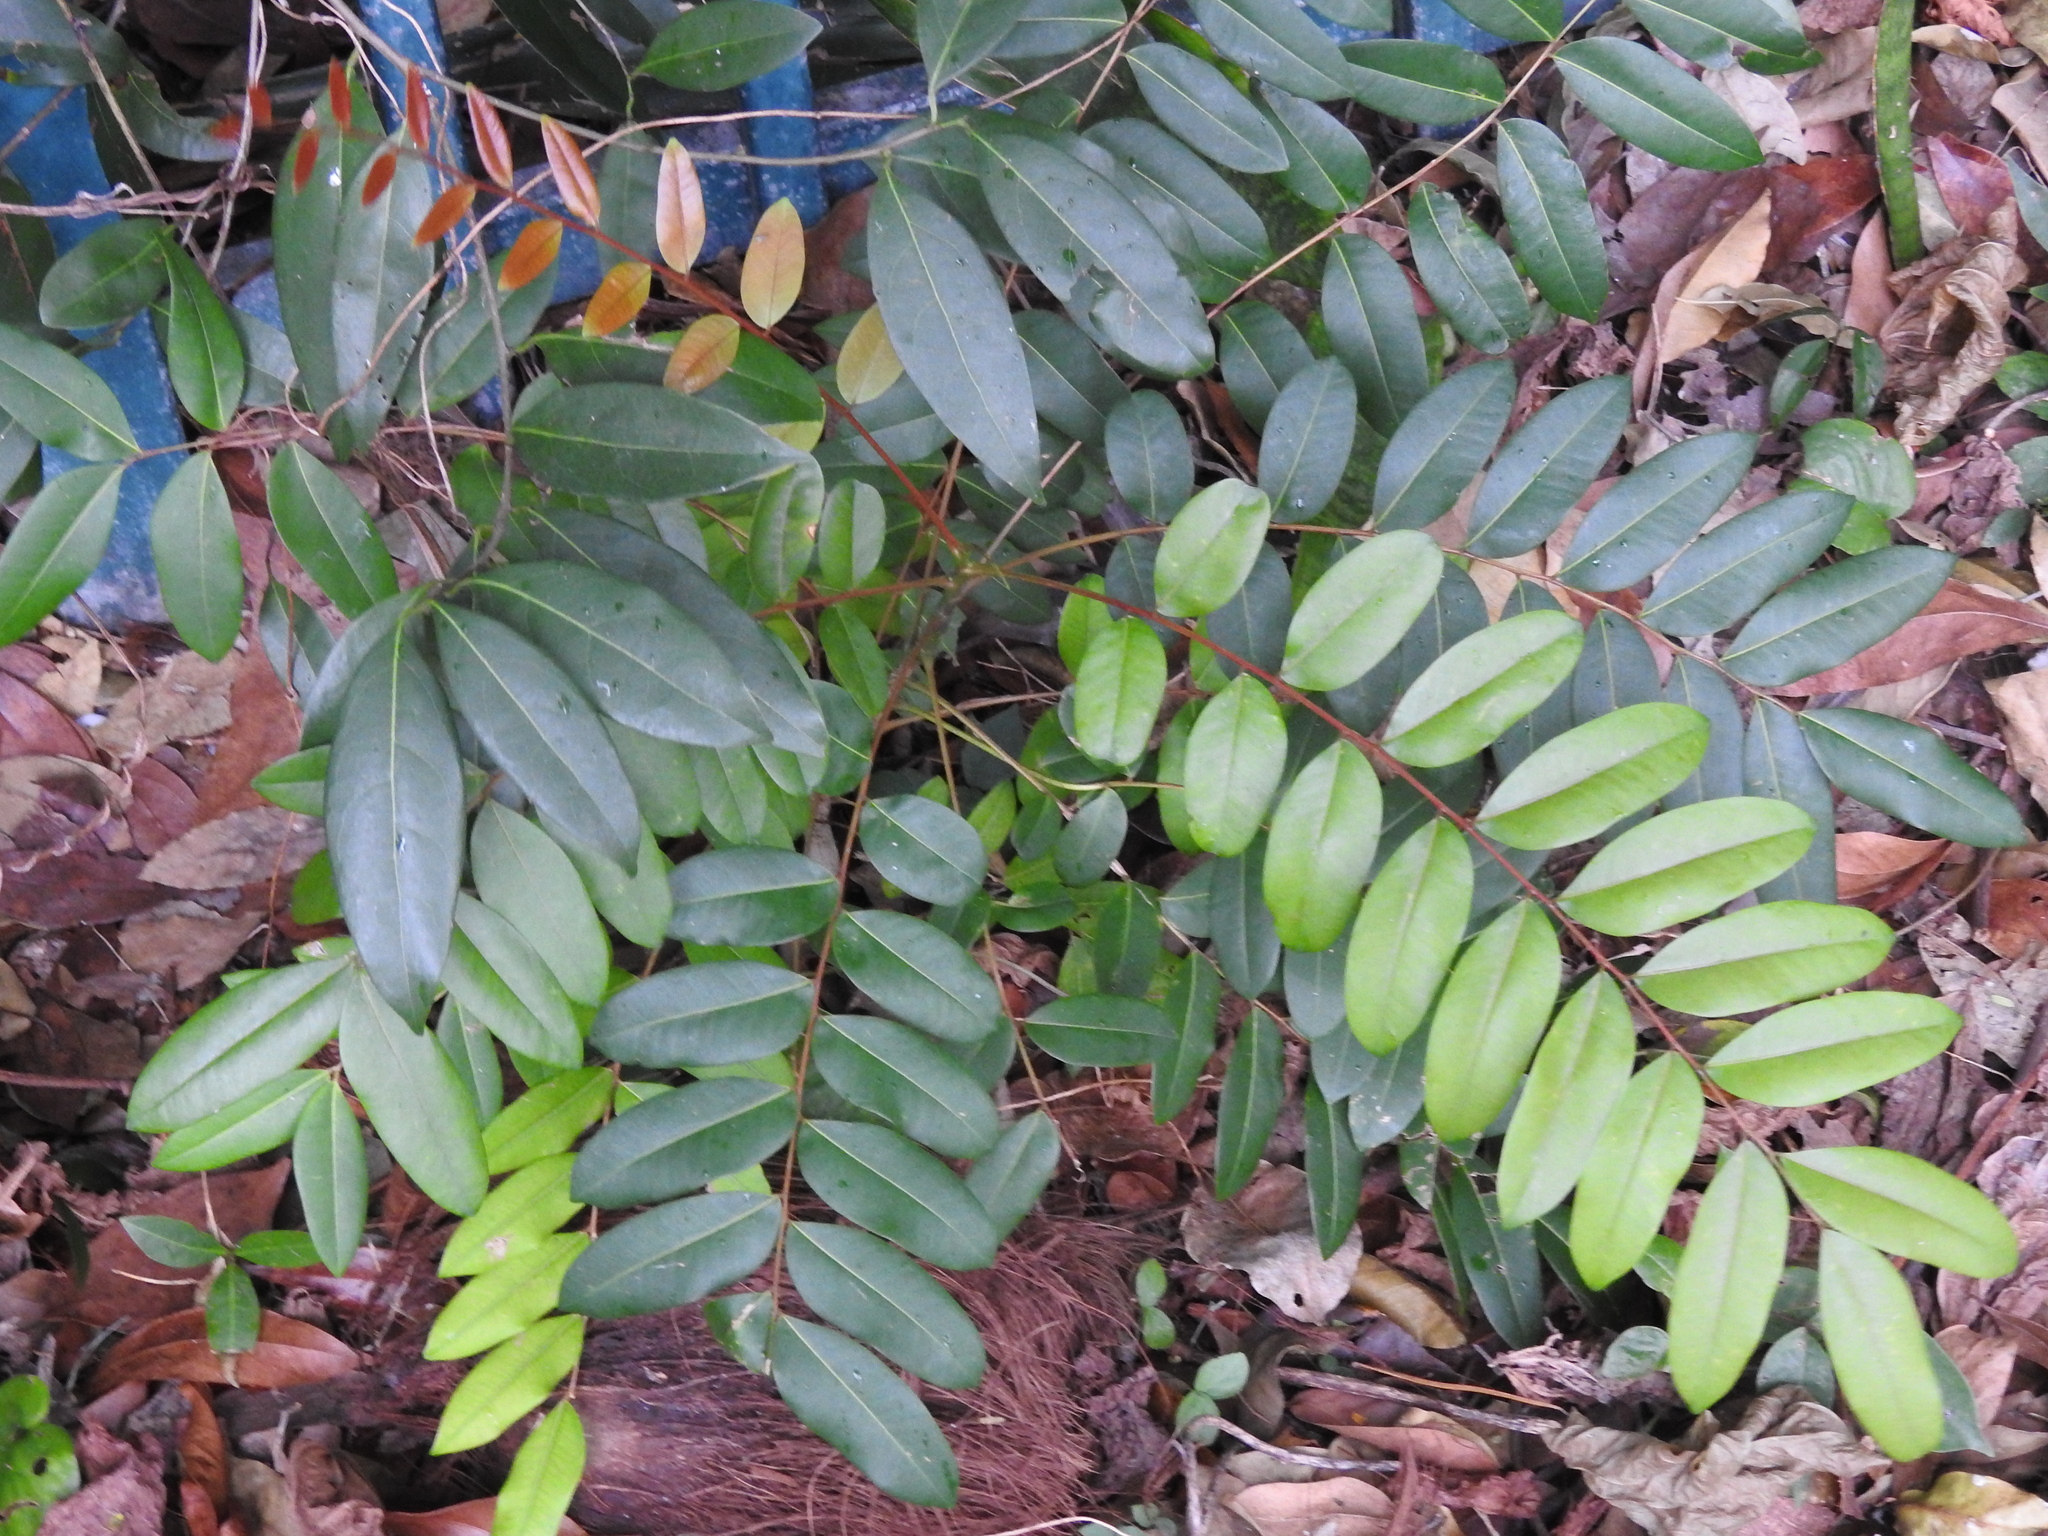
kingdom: Plantae
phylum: Tracheophyta
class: Magnoliopsida
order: Sapindales
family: Simaroubaceae
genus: Simarouba
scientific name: Simarouba glauca
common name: Dysentery-bark
